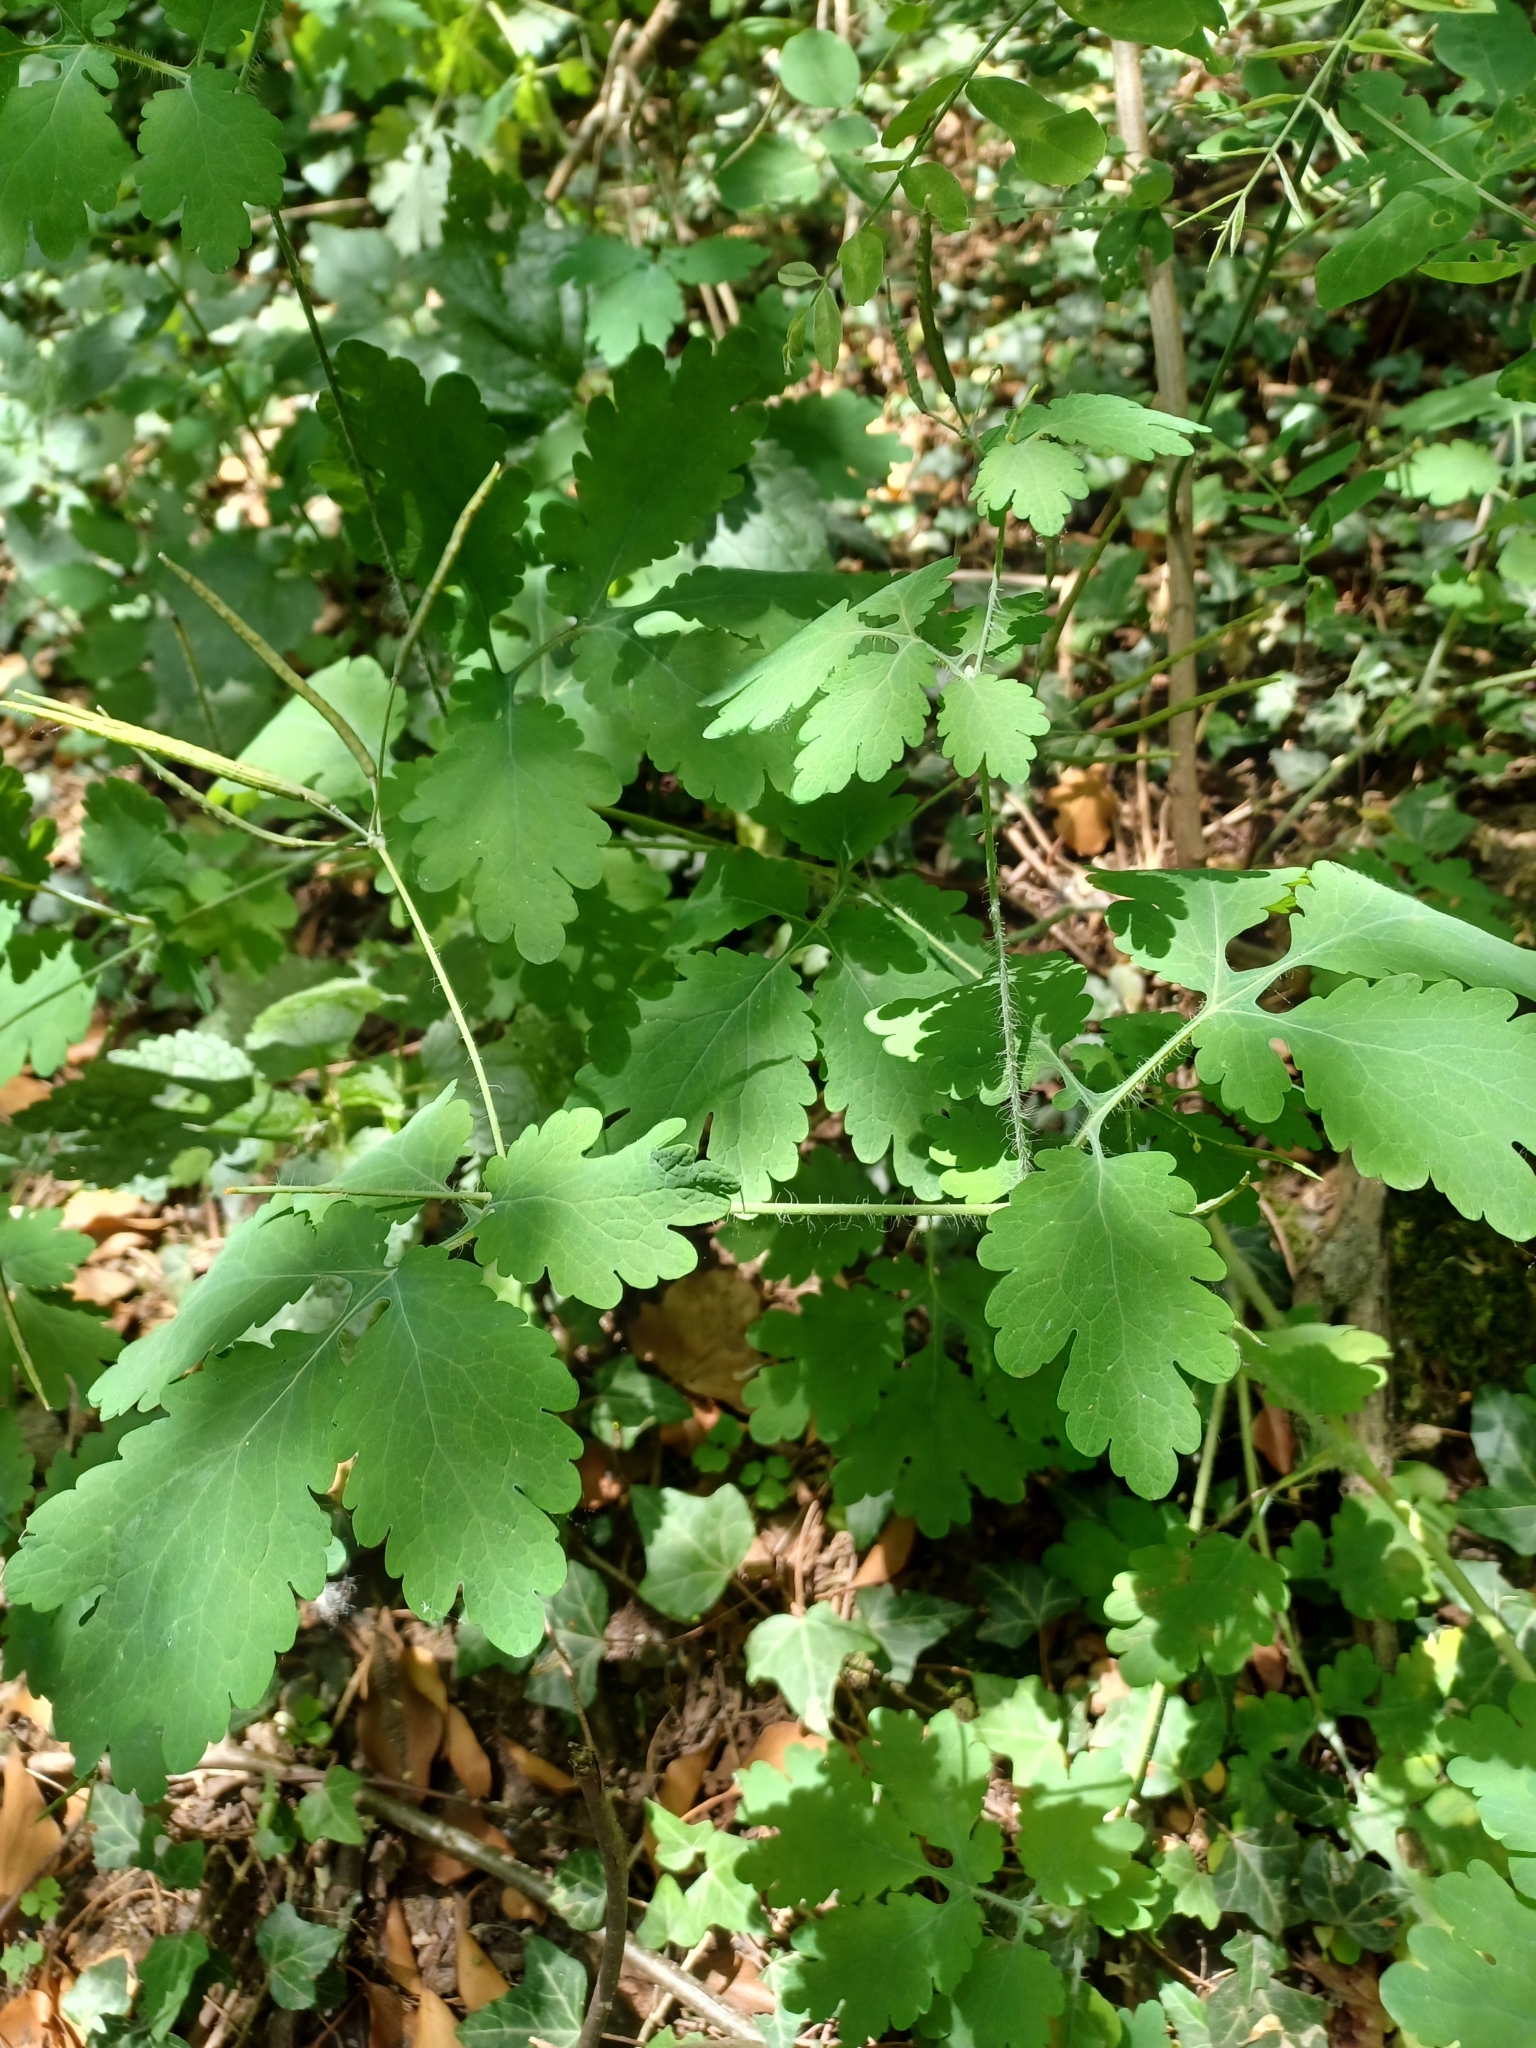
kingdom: Plantae
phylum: Tracheophyta
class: Magnoliopsida
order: Ranunculales
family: Papaveraceae
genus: Chelidonium
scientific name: Chelidonium majus
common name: Greater celandine
